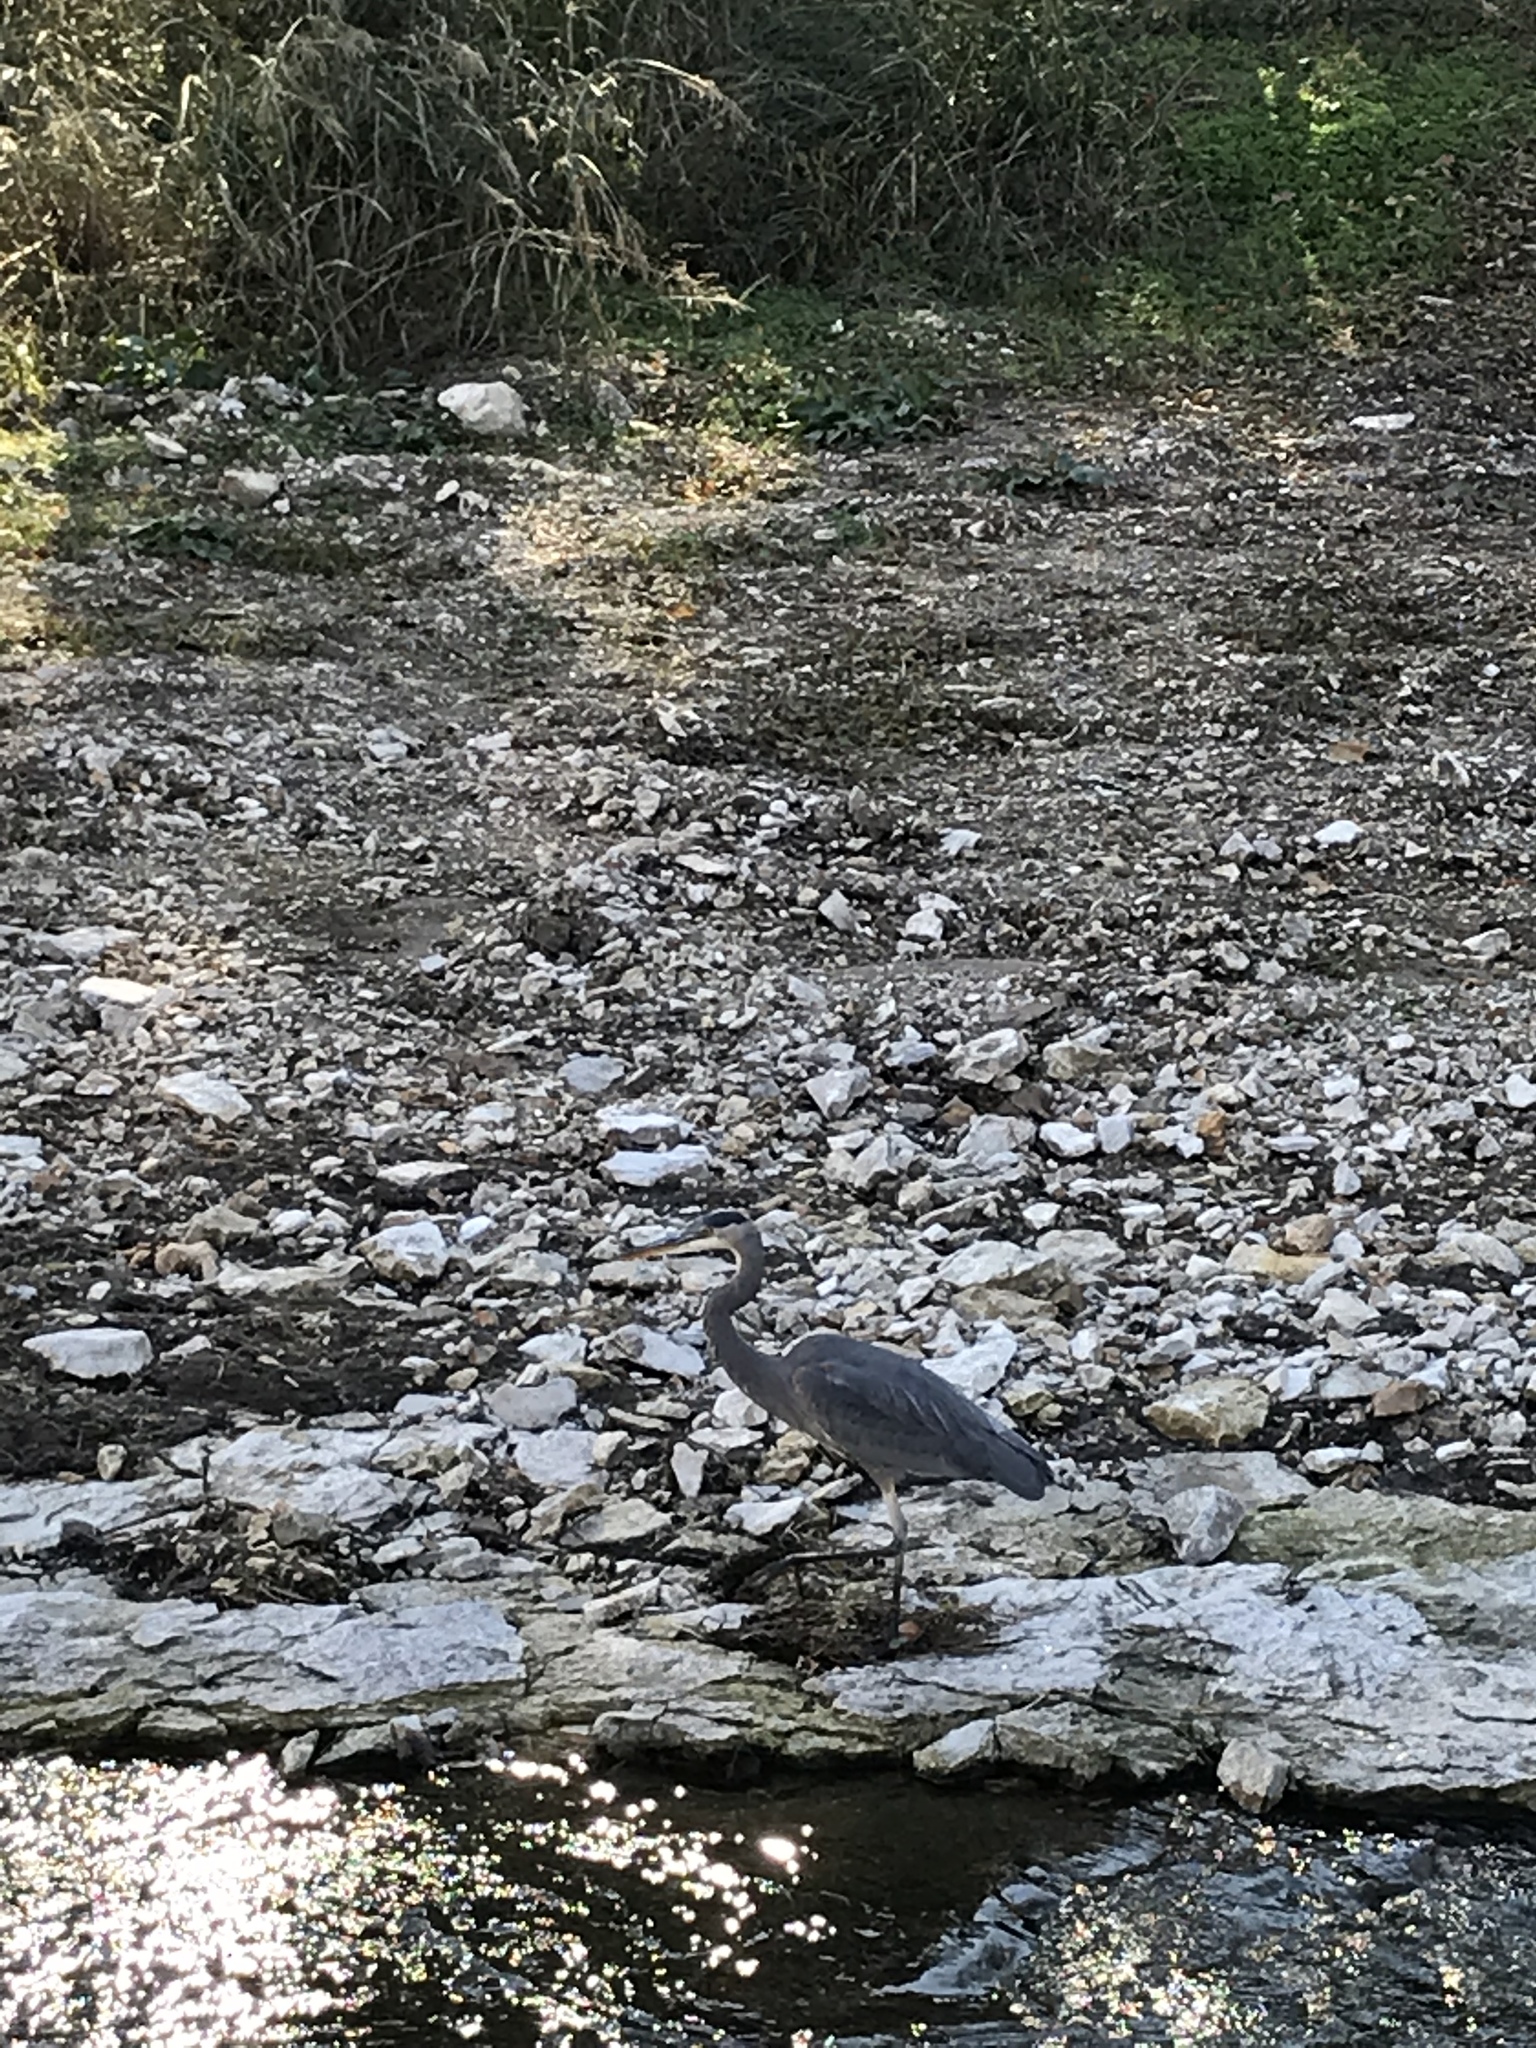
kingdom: Animalia
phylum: Chordata
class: Aves
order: Pelecaniformes
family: Ardeidae
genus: Ardea
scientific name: Ardea herodias
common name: Great blue heron
